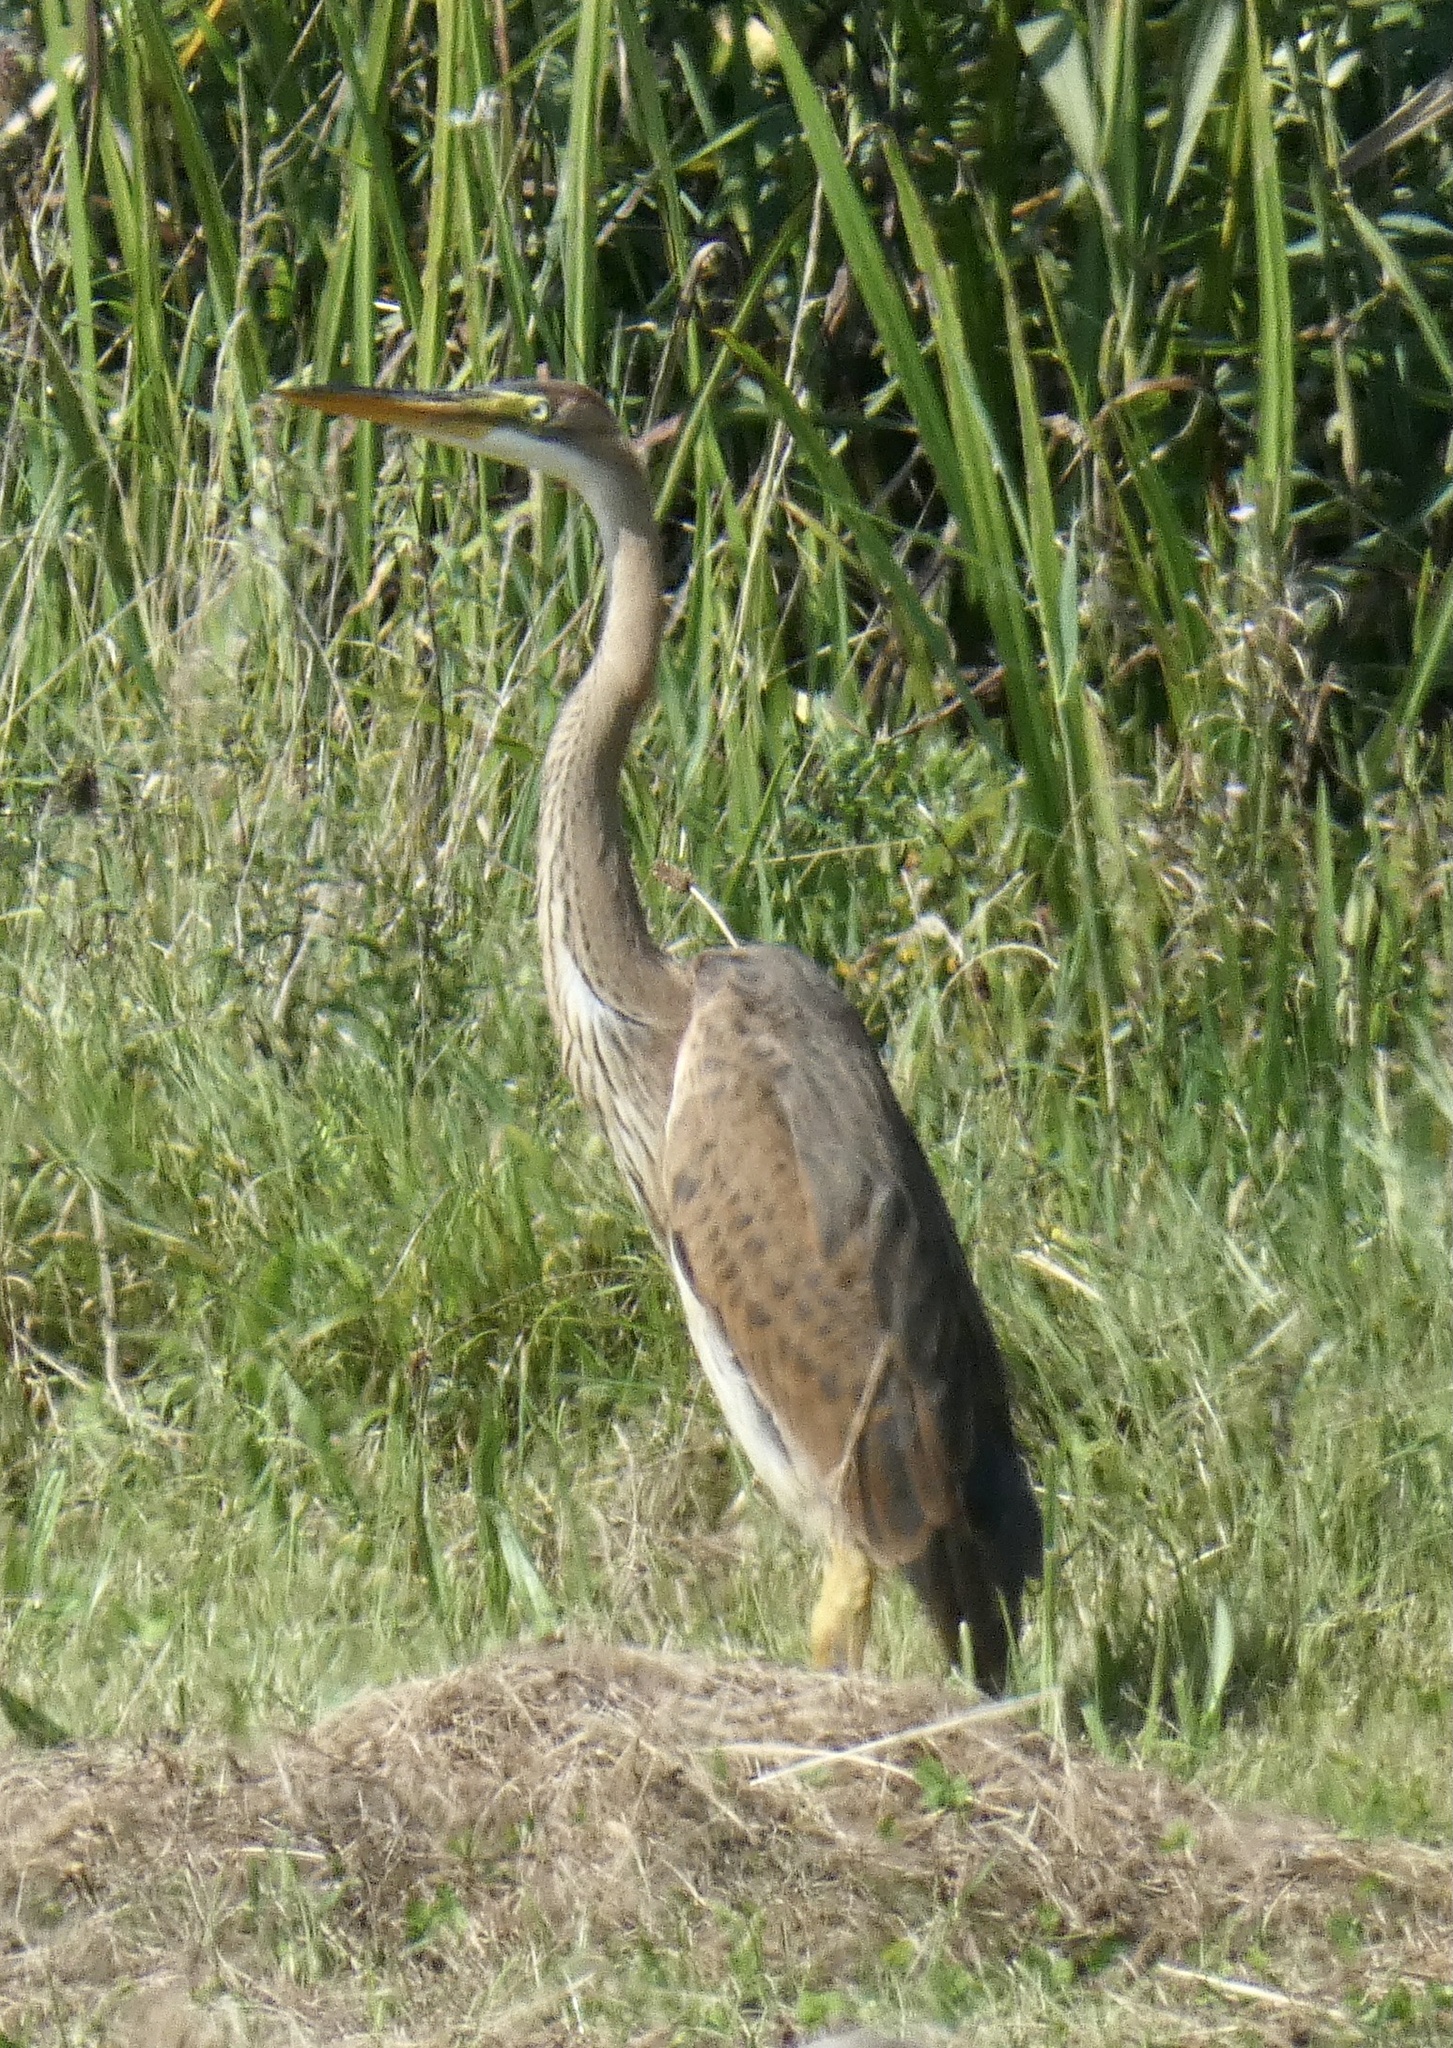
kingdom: Animalia
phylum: Chordata
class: Aves
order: Pelecaniformes
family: Ardeidae
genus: Ardea
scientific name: Ardea purpurea
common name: Purple heron
